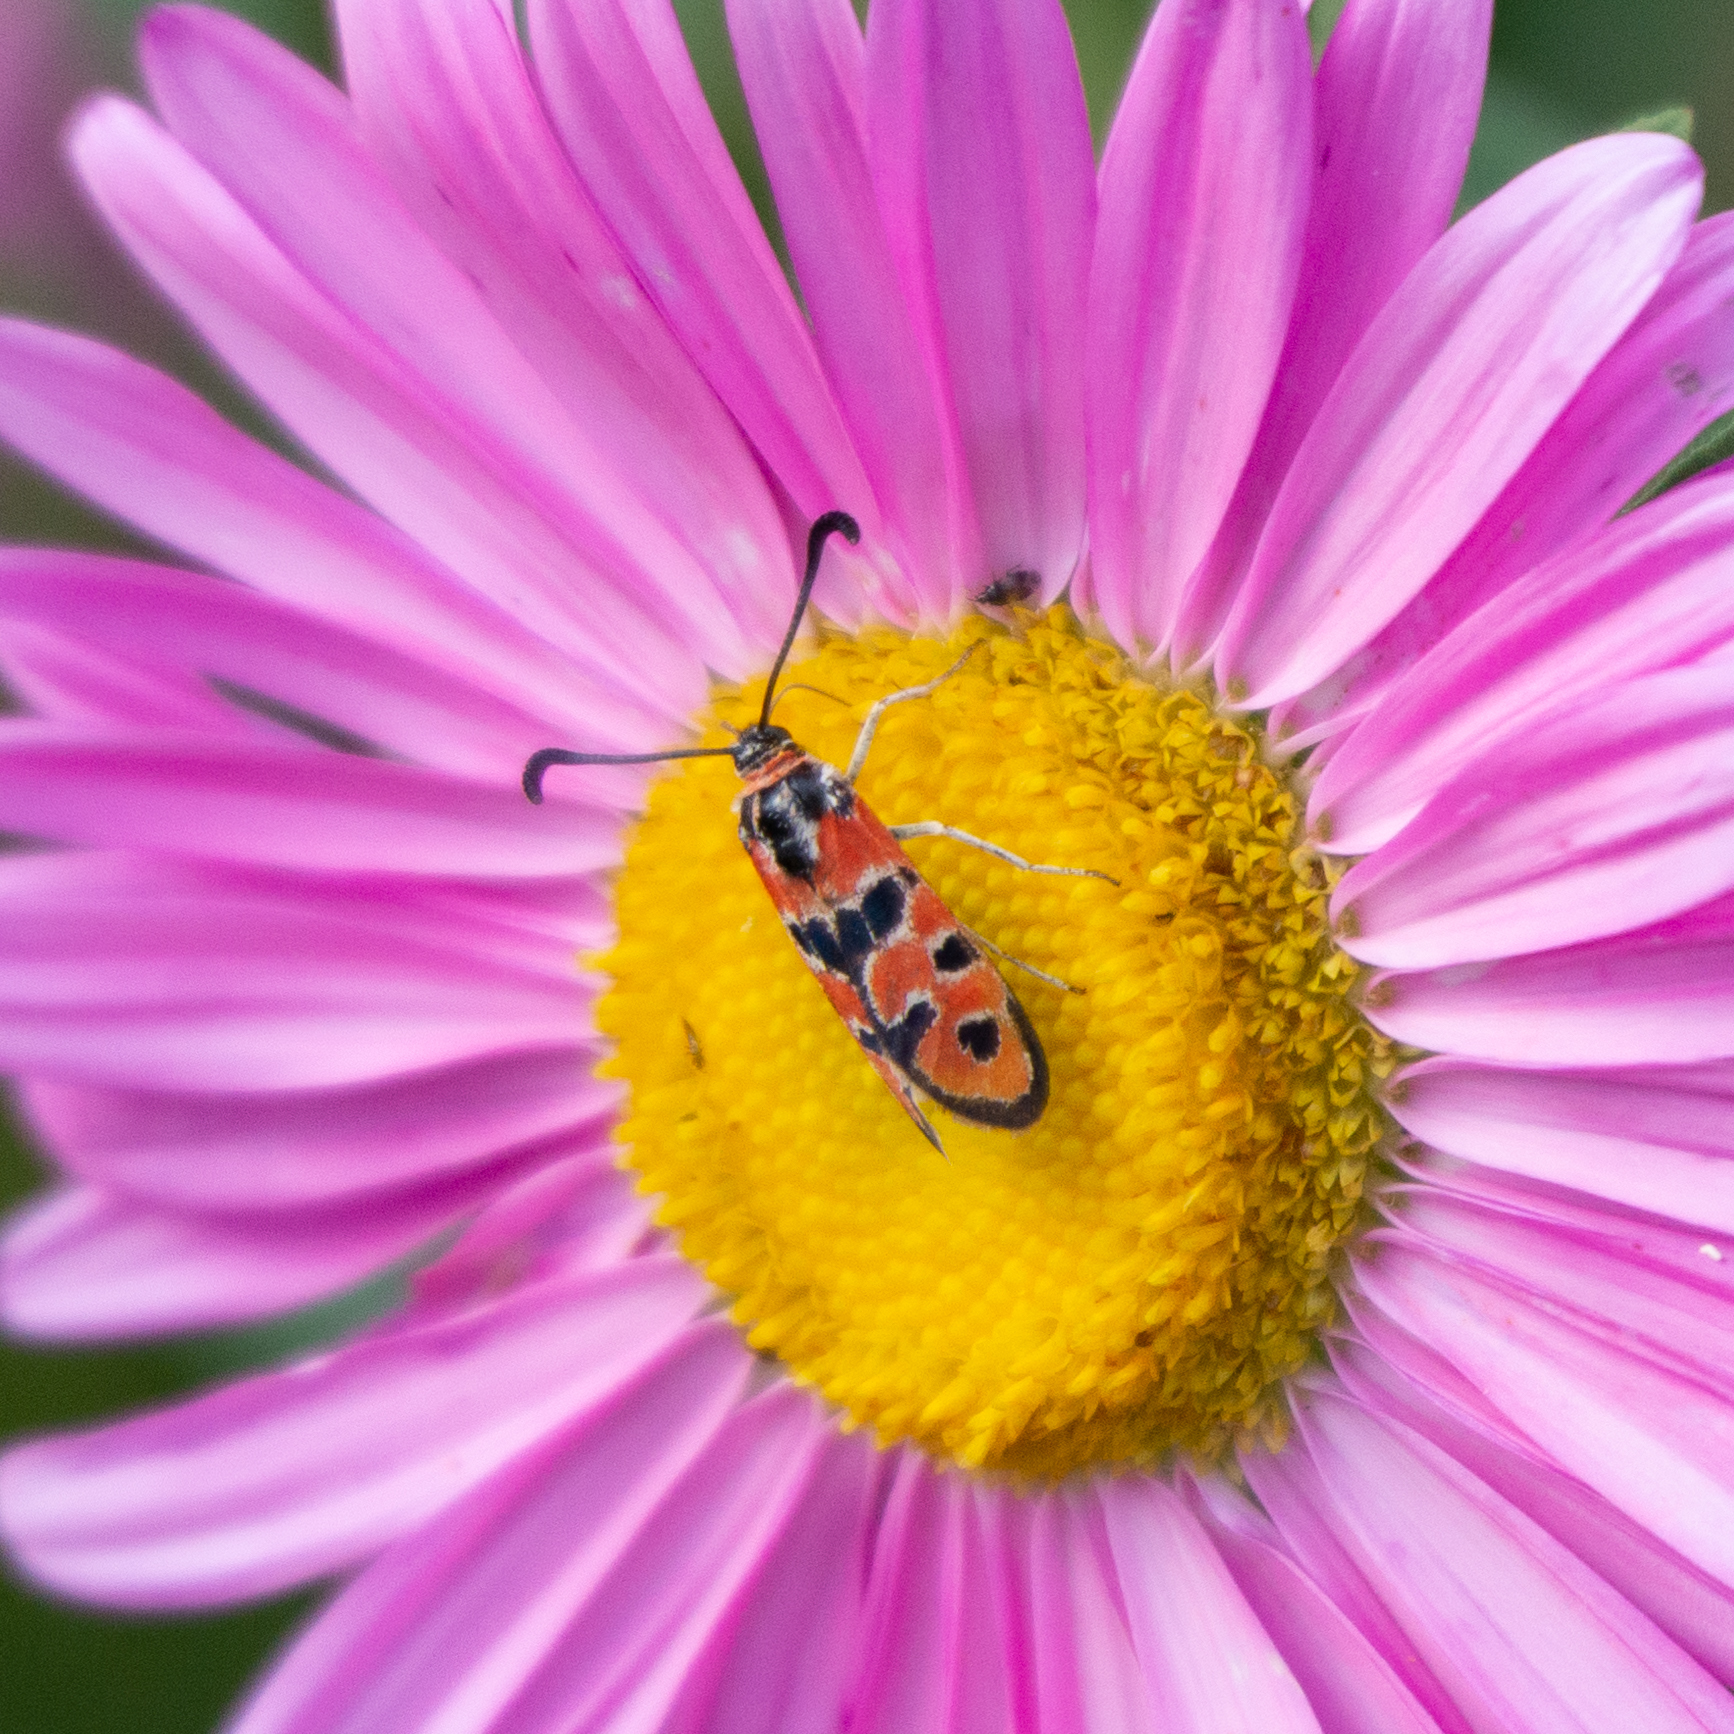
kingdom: Animalia
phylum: Arthropoda
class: Insecta
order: Lepidoptera
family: Zygaenidae
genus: Zygaena
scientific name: Zygaena fausta
